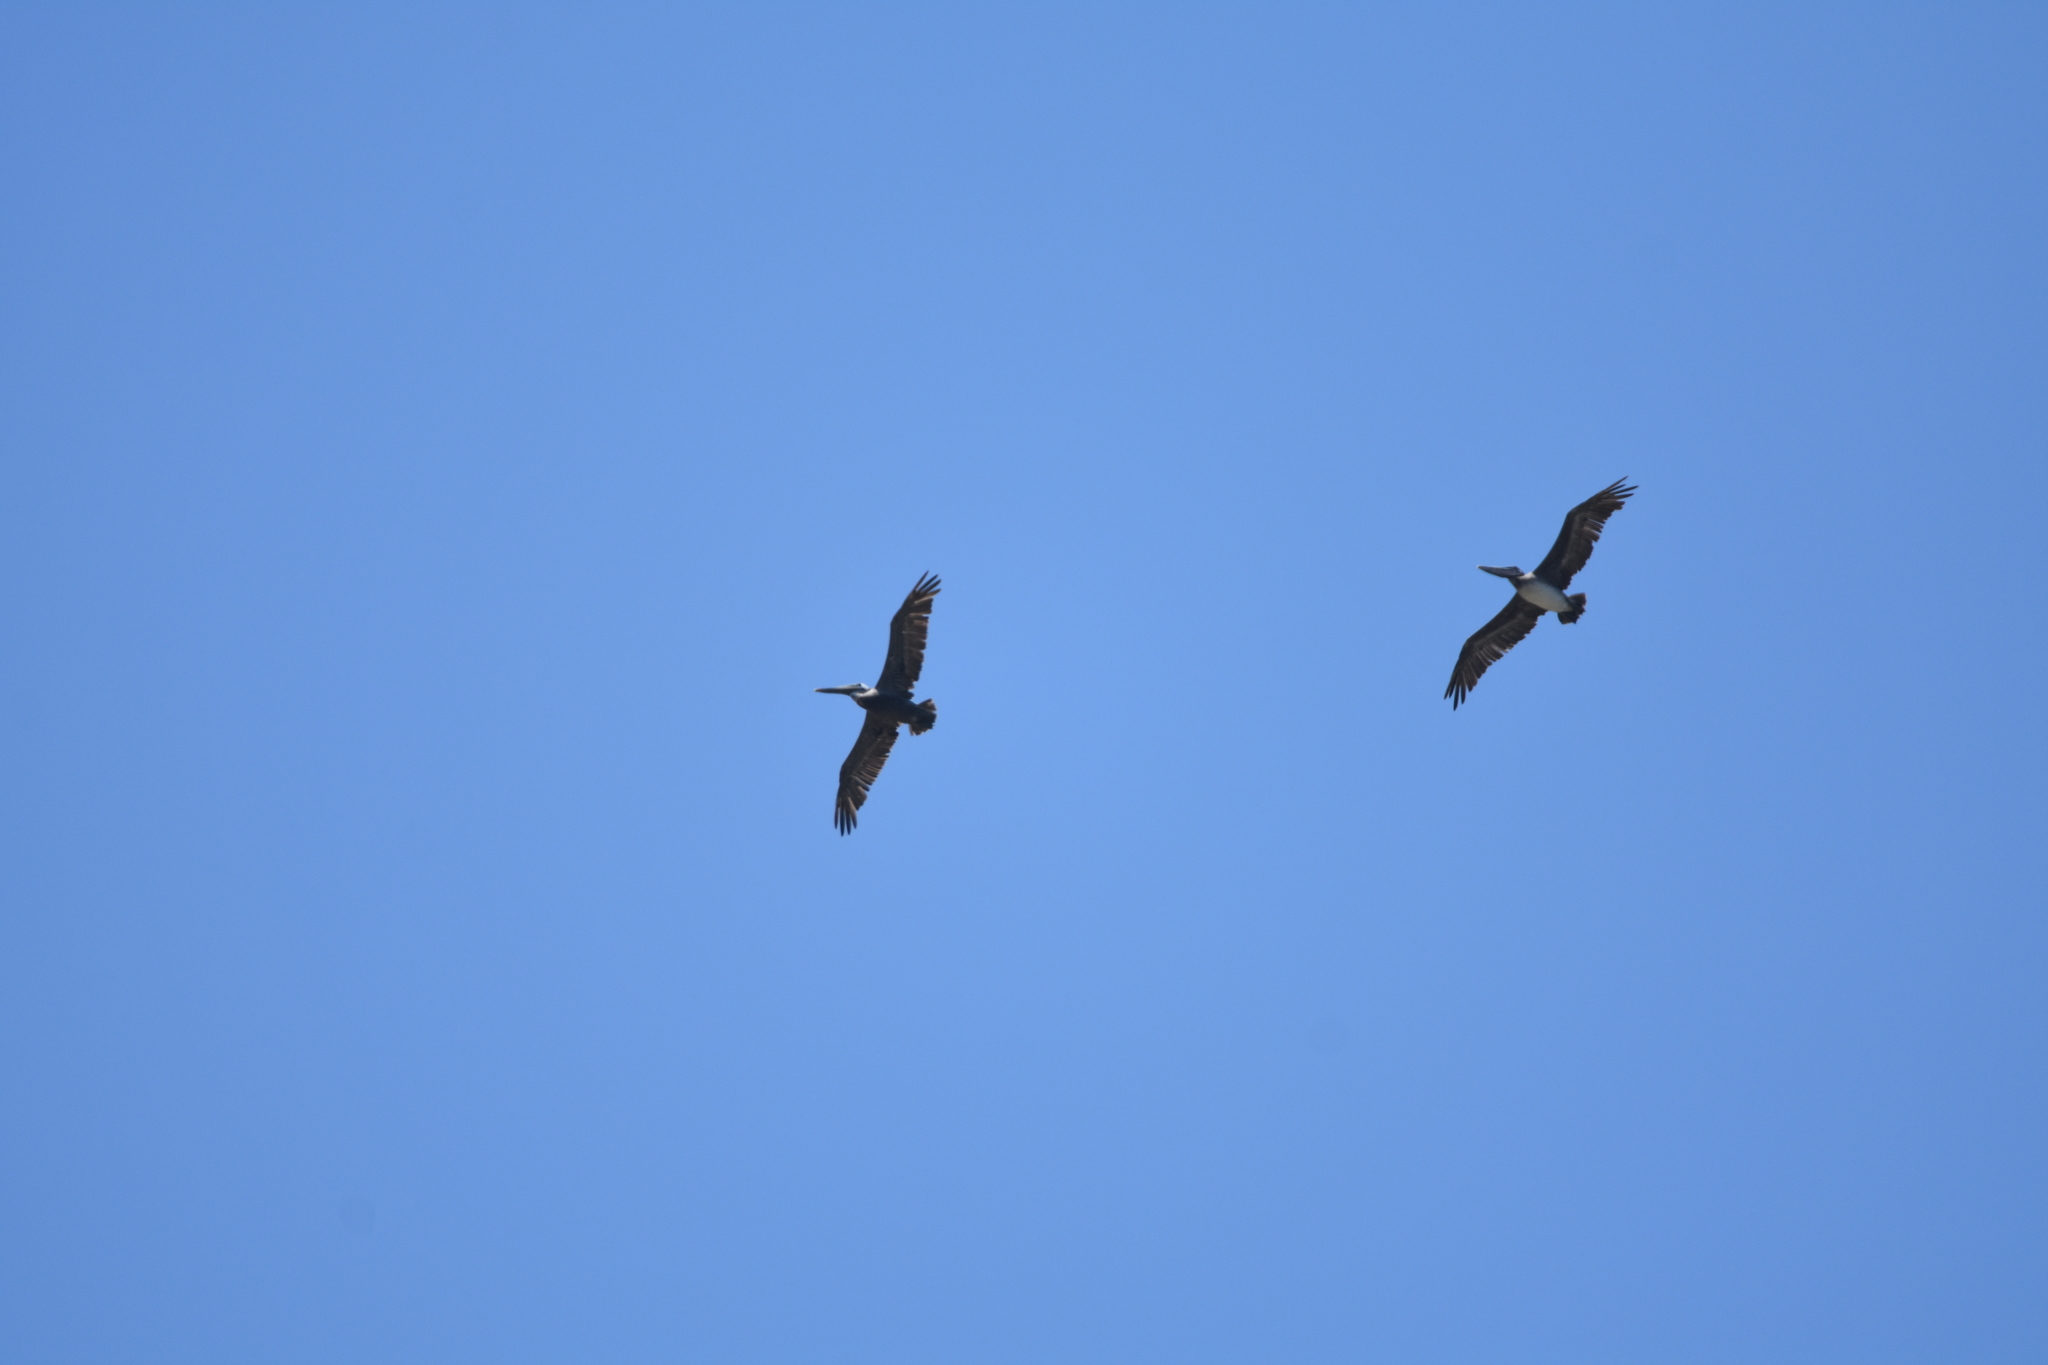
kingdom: Animalia
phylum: Chordata
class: Aves
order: Pelecaniformes
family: Pelecanidae
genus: Pelecanus
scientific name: Pelecanus occidentalis
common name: Brown pelican
